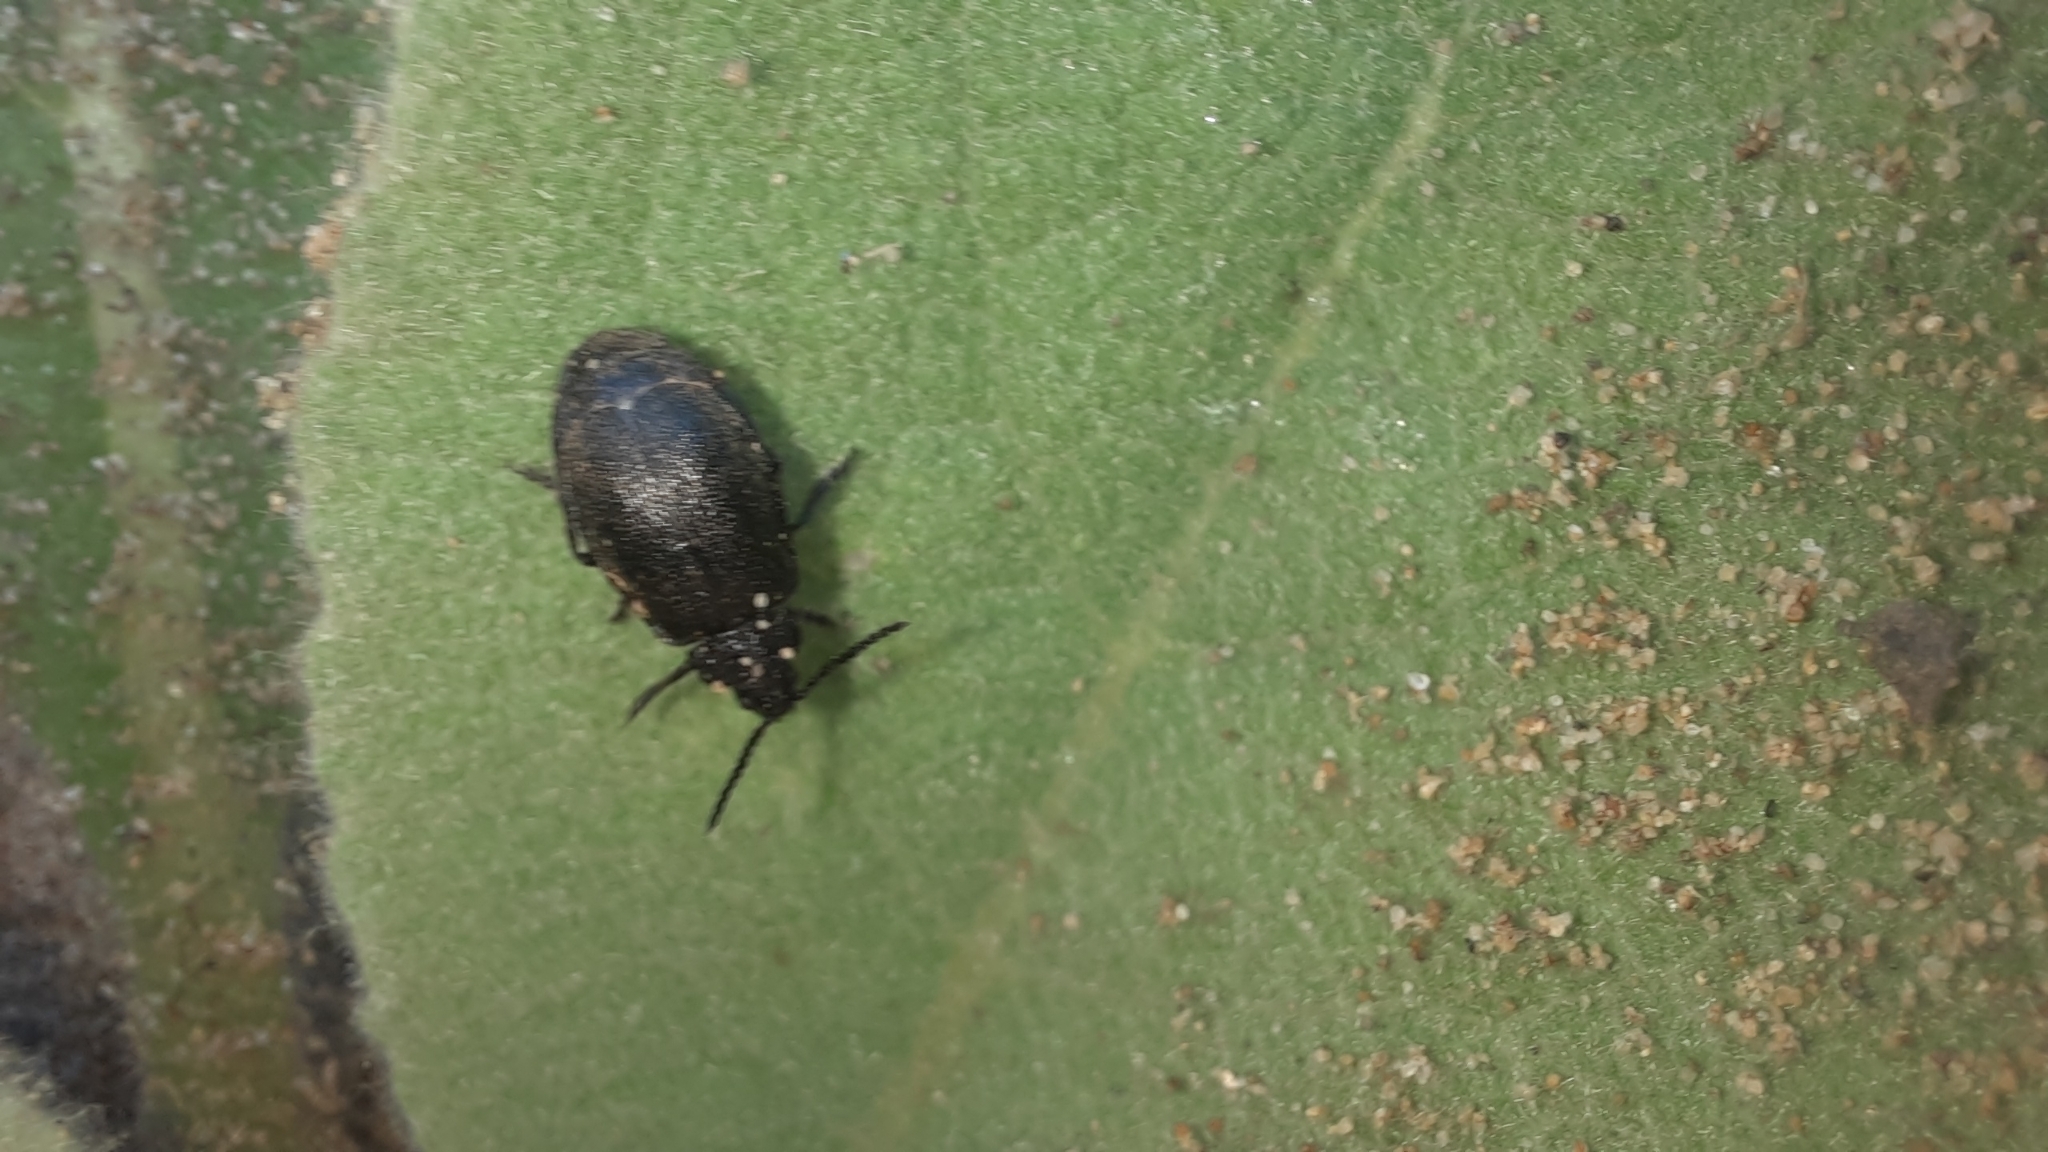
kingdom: Animalia
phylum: Arthropoda
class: Insecta
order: Coleoptera
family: Chrysomelidae
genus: Galeruca
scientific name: Galeruca tanaceti
